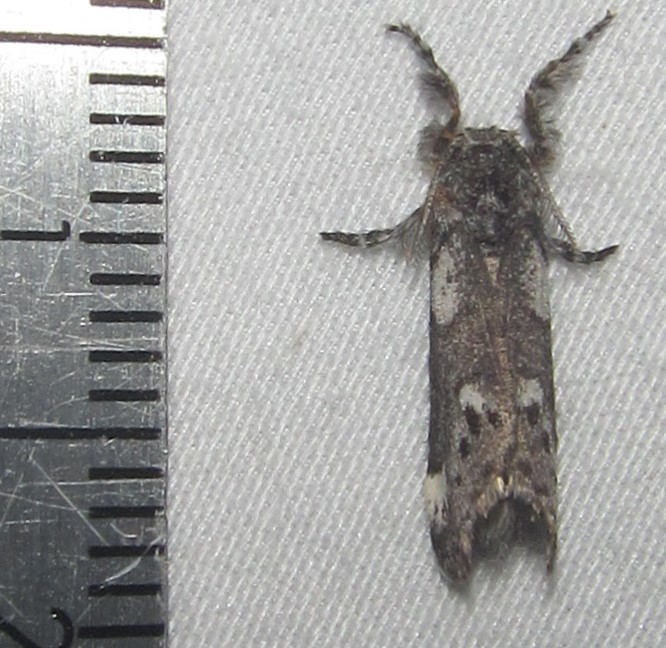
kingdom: Animalia
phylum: Arthropoda
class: Insecta
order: Lepidoptera
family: Erebidae
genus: Salvatgea
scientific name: Salvatgea xanthosoma
